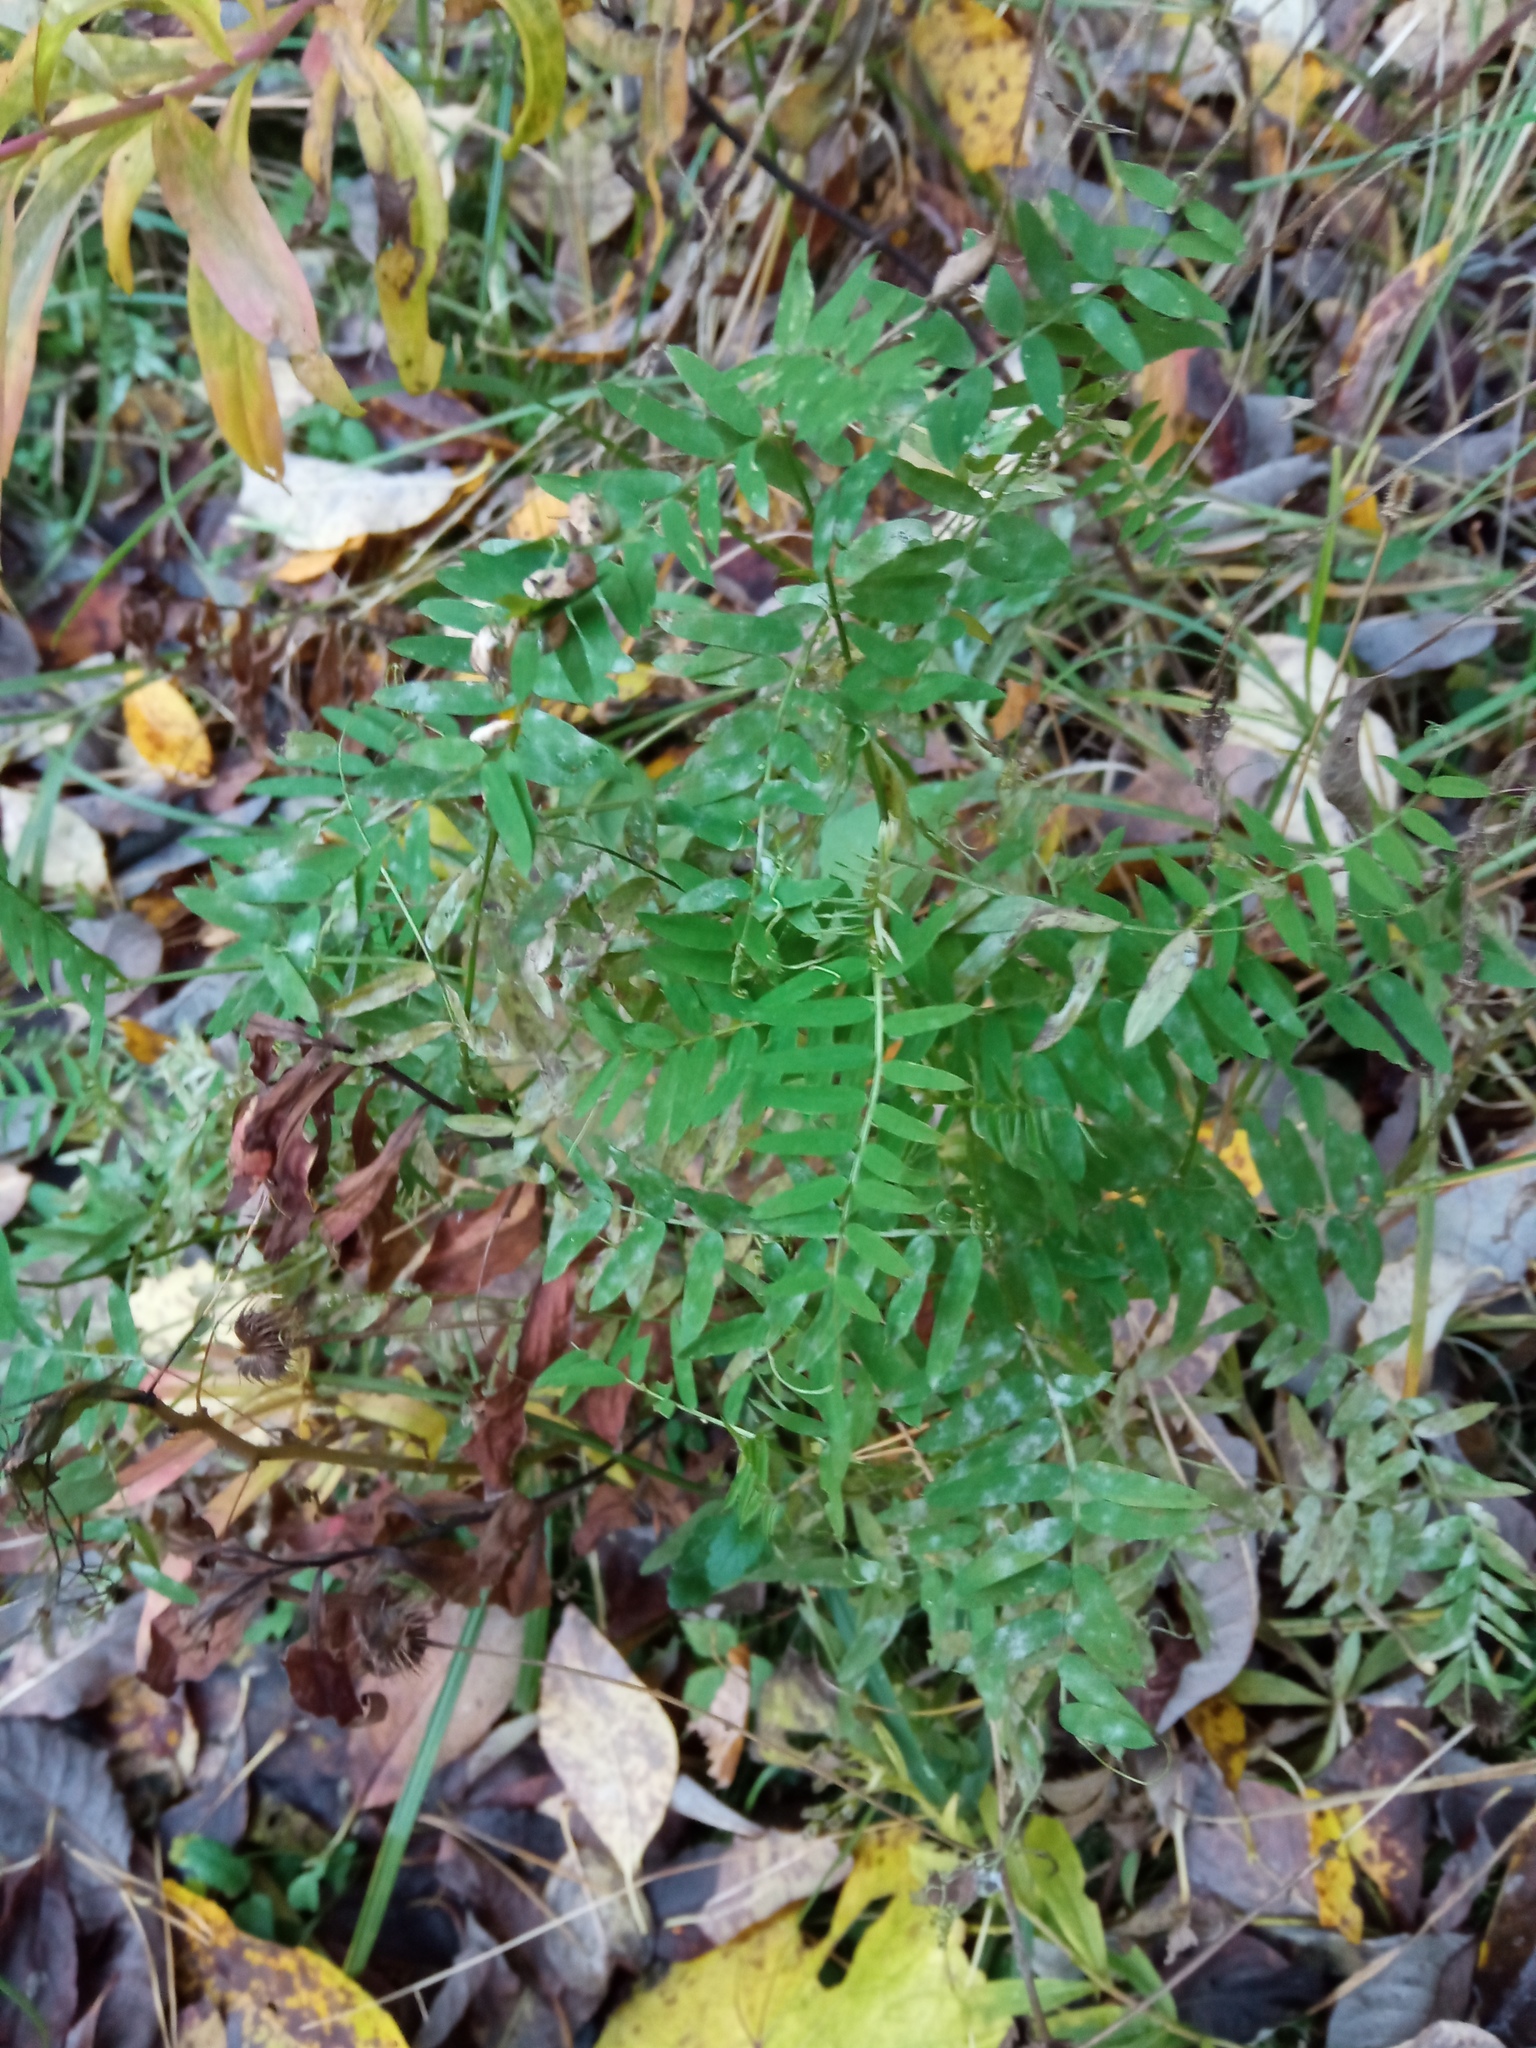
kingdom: Plantae
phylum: Tracheophyta
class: Magnoliopsida
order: Fabales
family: Fabaceae
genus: Vicia
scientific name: Vicia cracca
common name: Bird vetch
